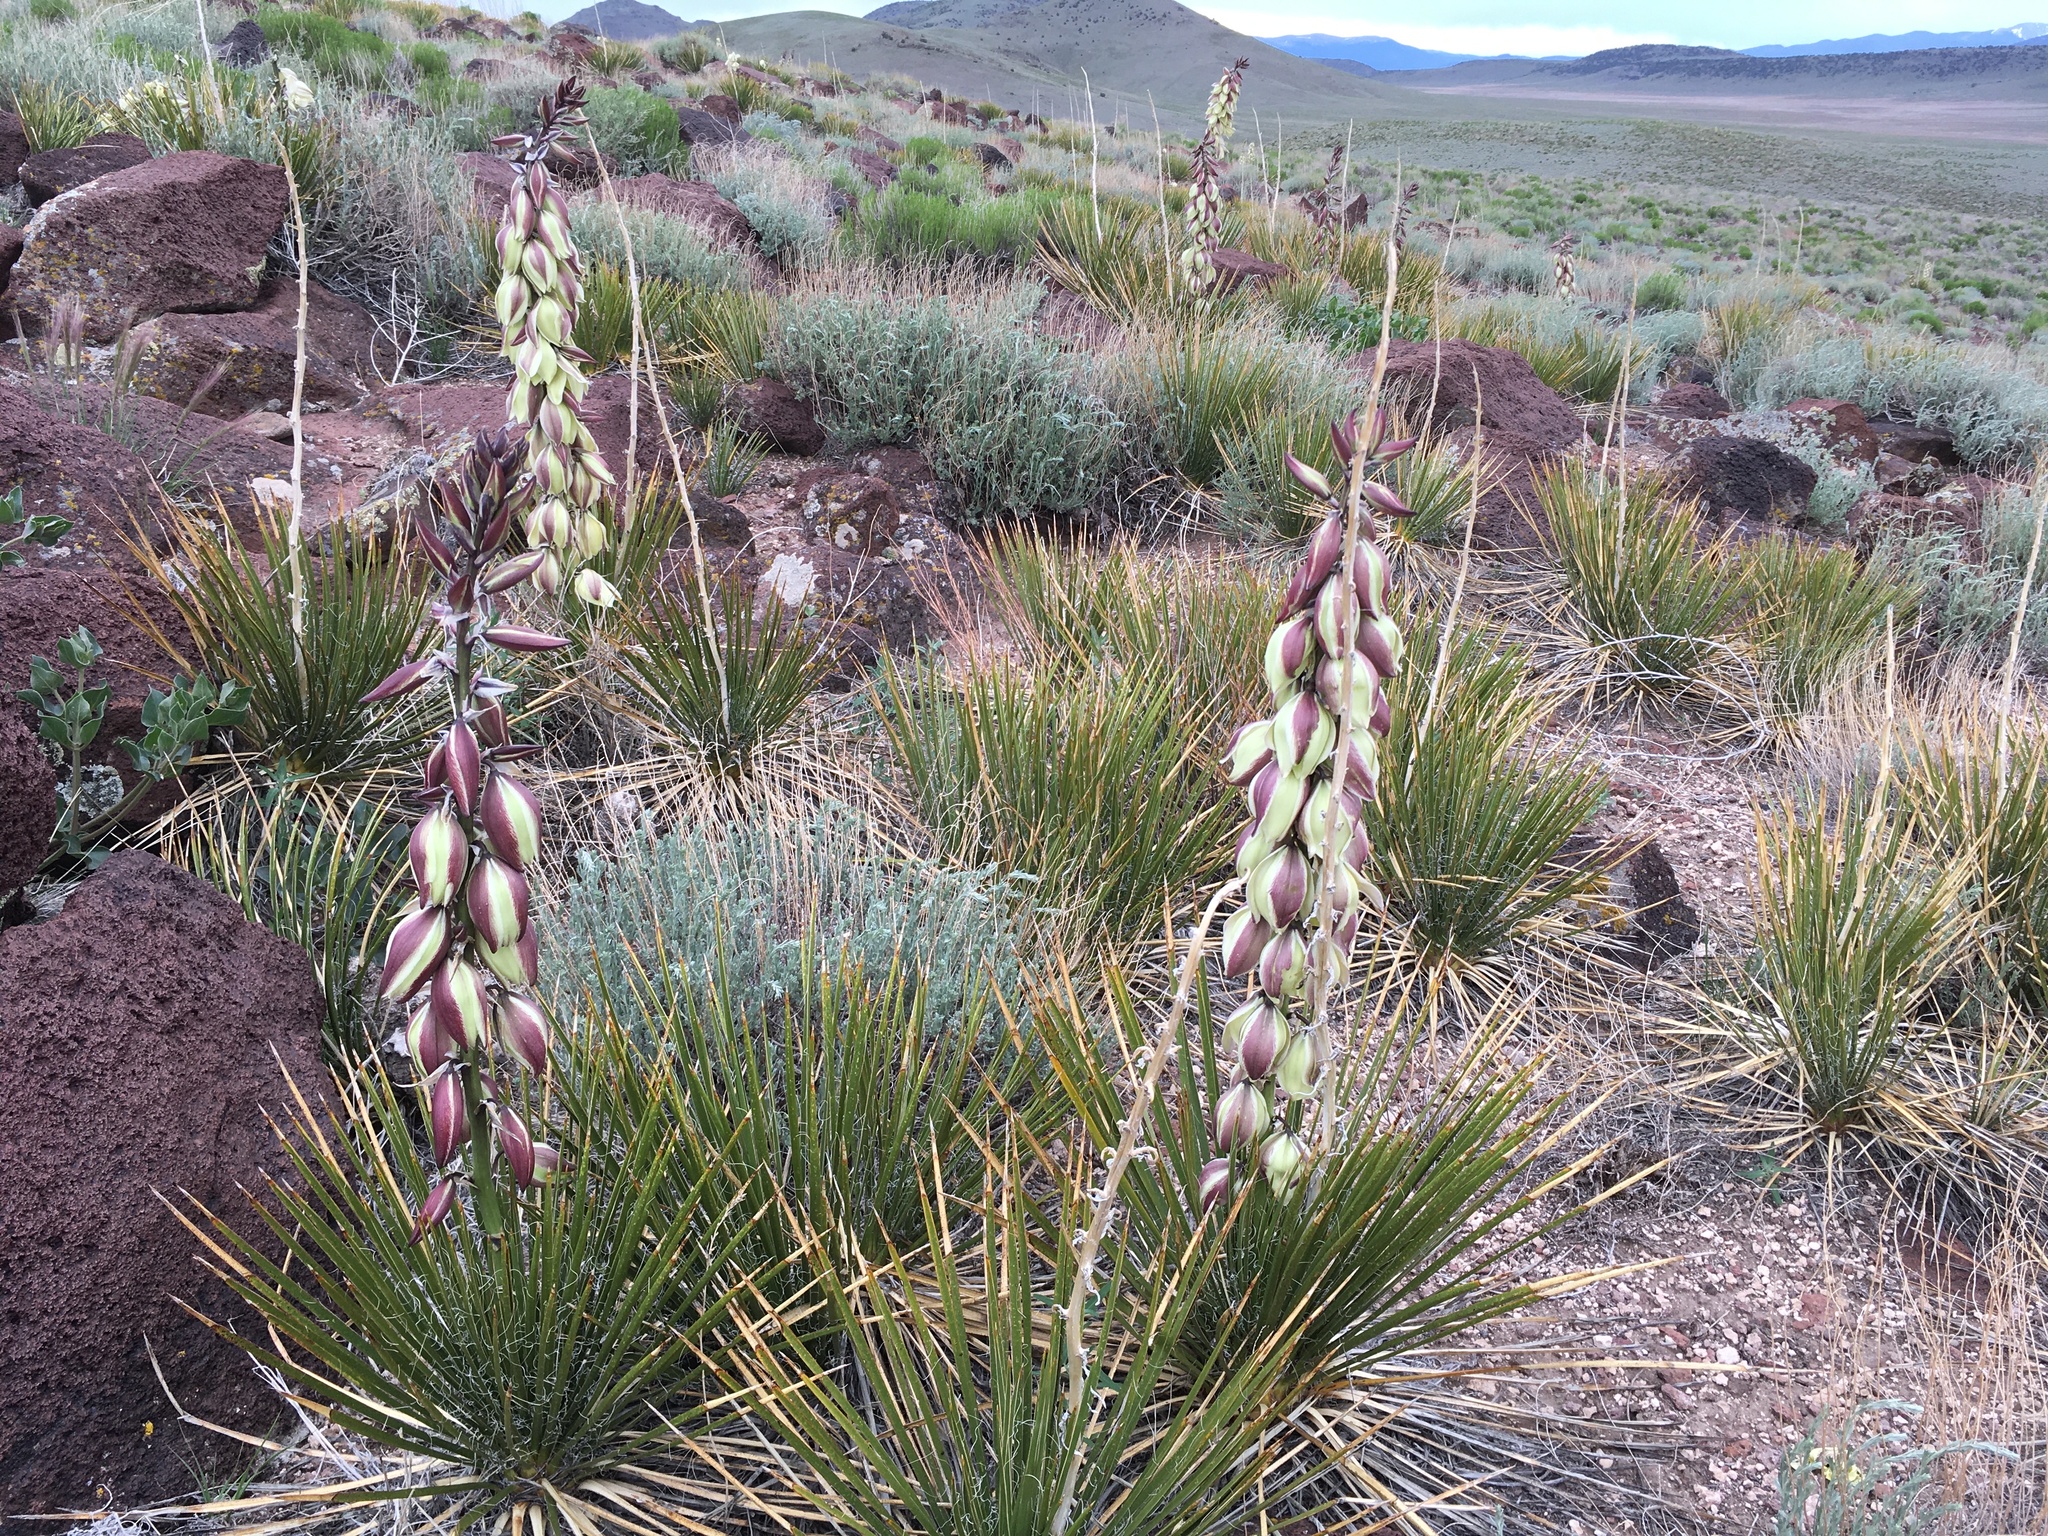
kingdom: Plantae
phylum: Tracheophyta
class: Liliopsida
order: Asparagales
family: Asparagaceae
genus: Yucca
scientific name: Yucca glauca
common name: Great plains yucca
